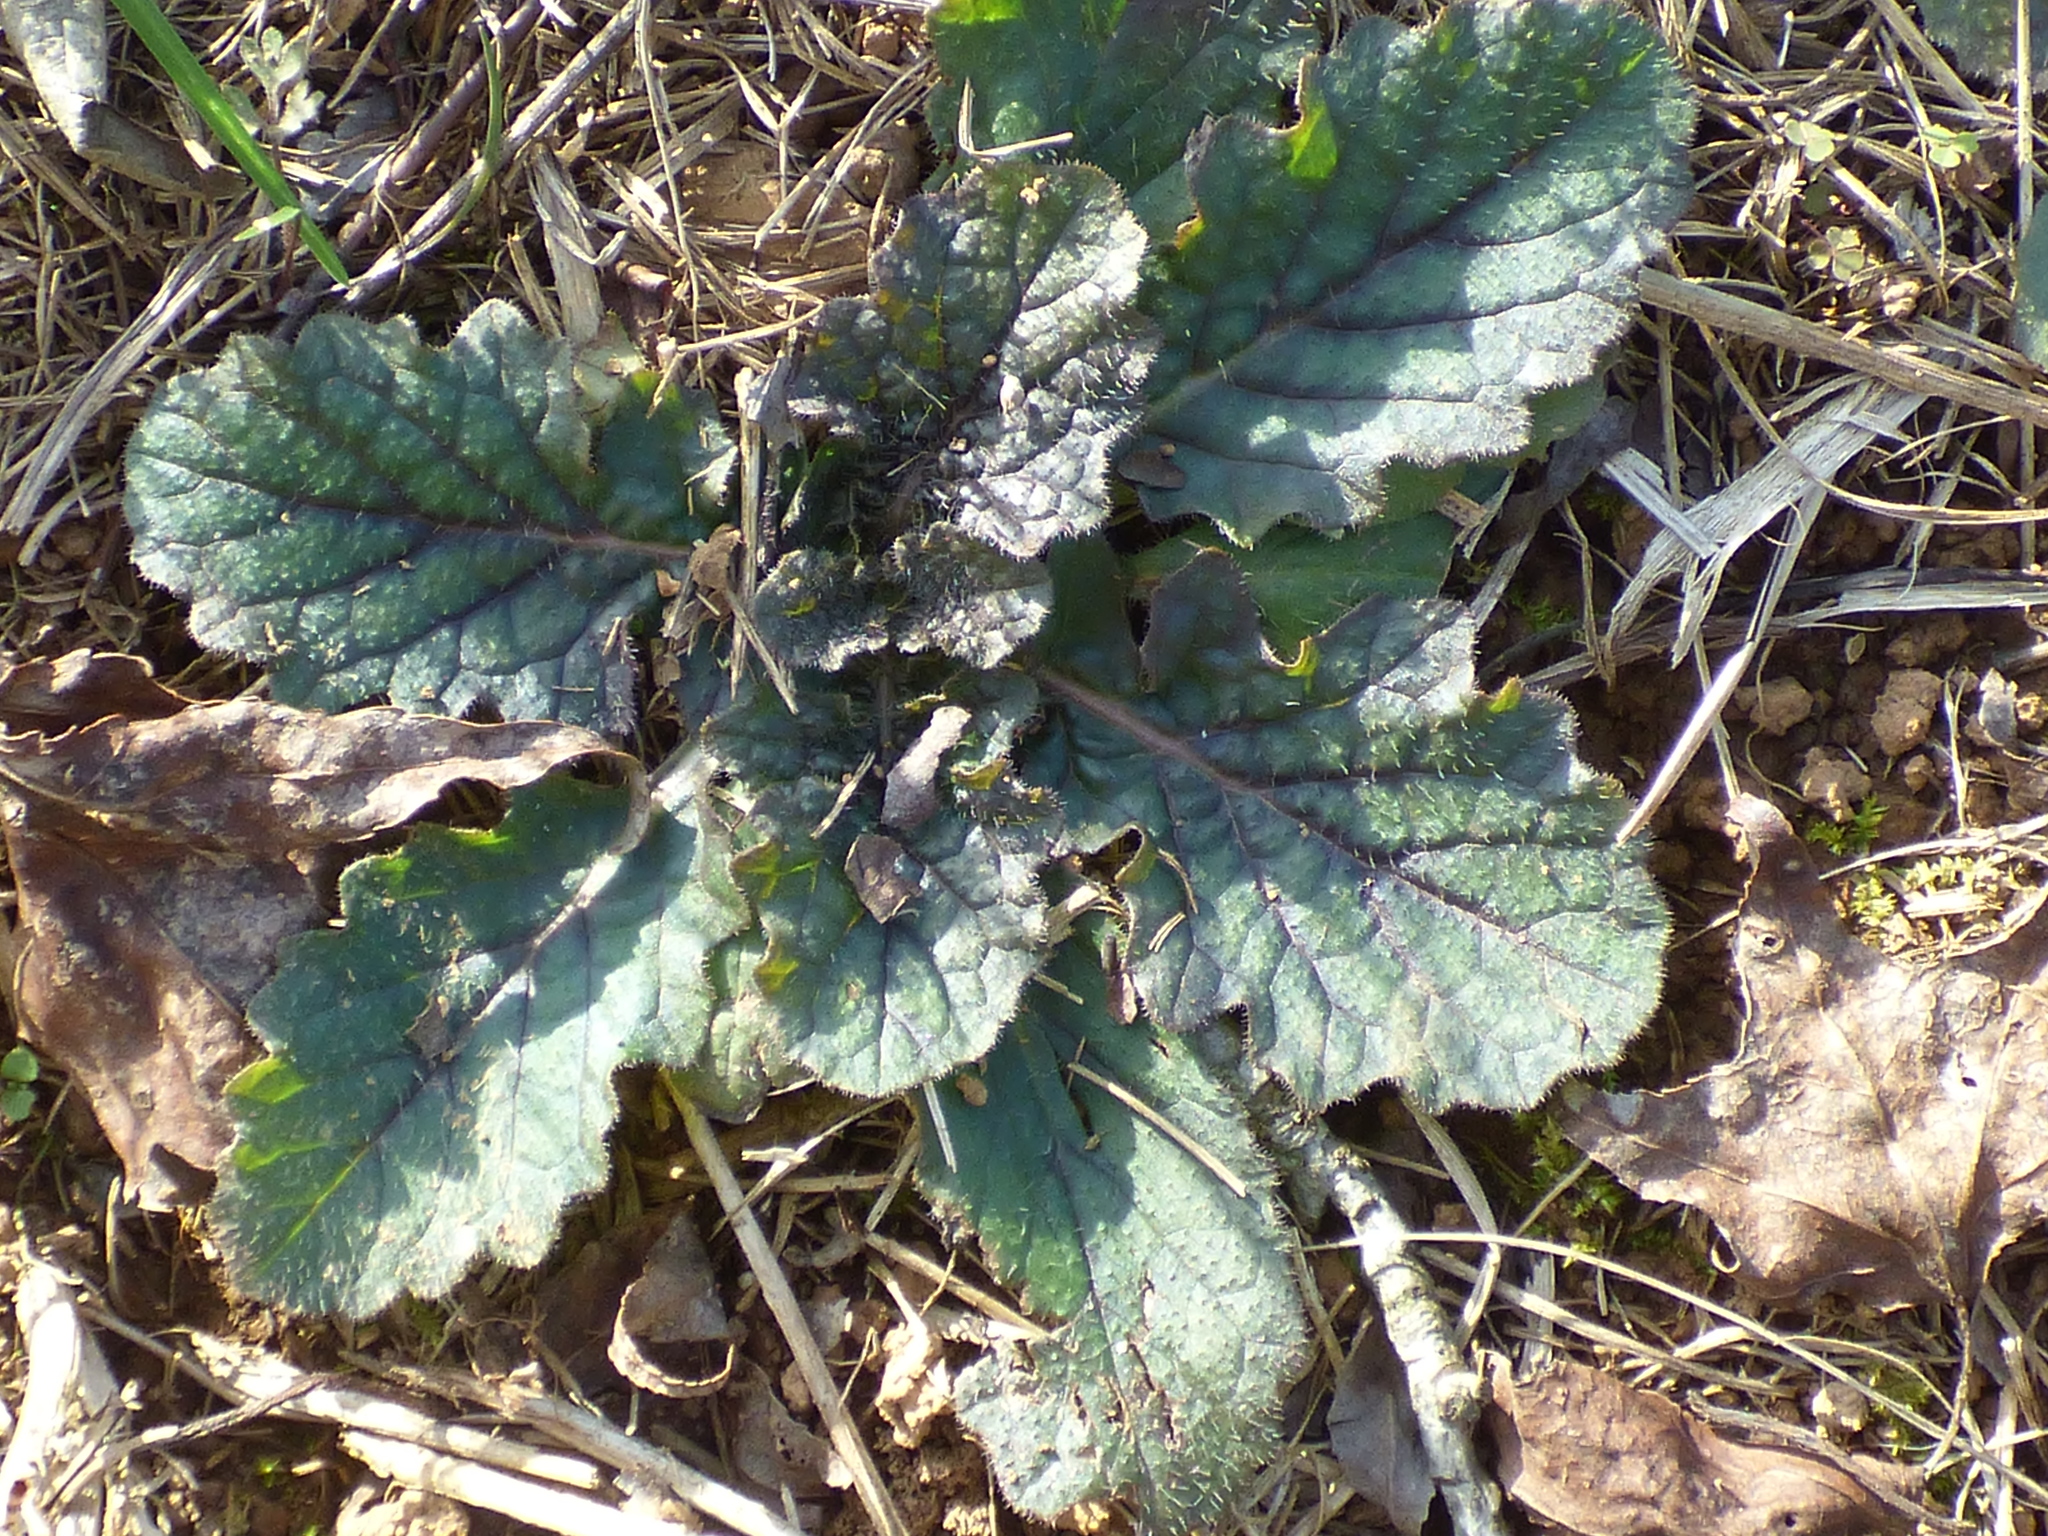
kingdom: Plantae
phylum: Tracheophyta
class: Magnoliopsida
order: Lamiales
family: Lamiaceae
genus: Salvia
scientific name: Salvia lyrata
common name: Cancerweed
